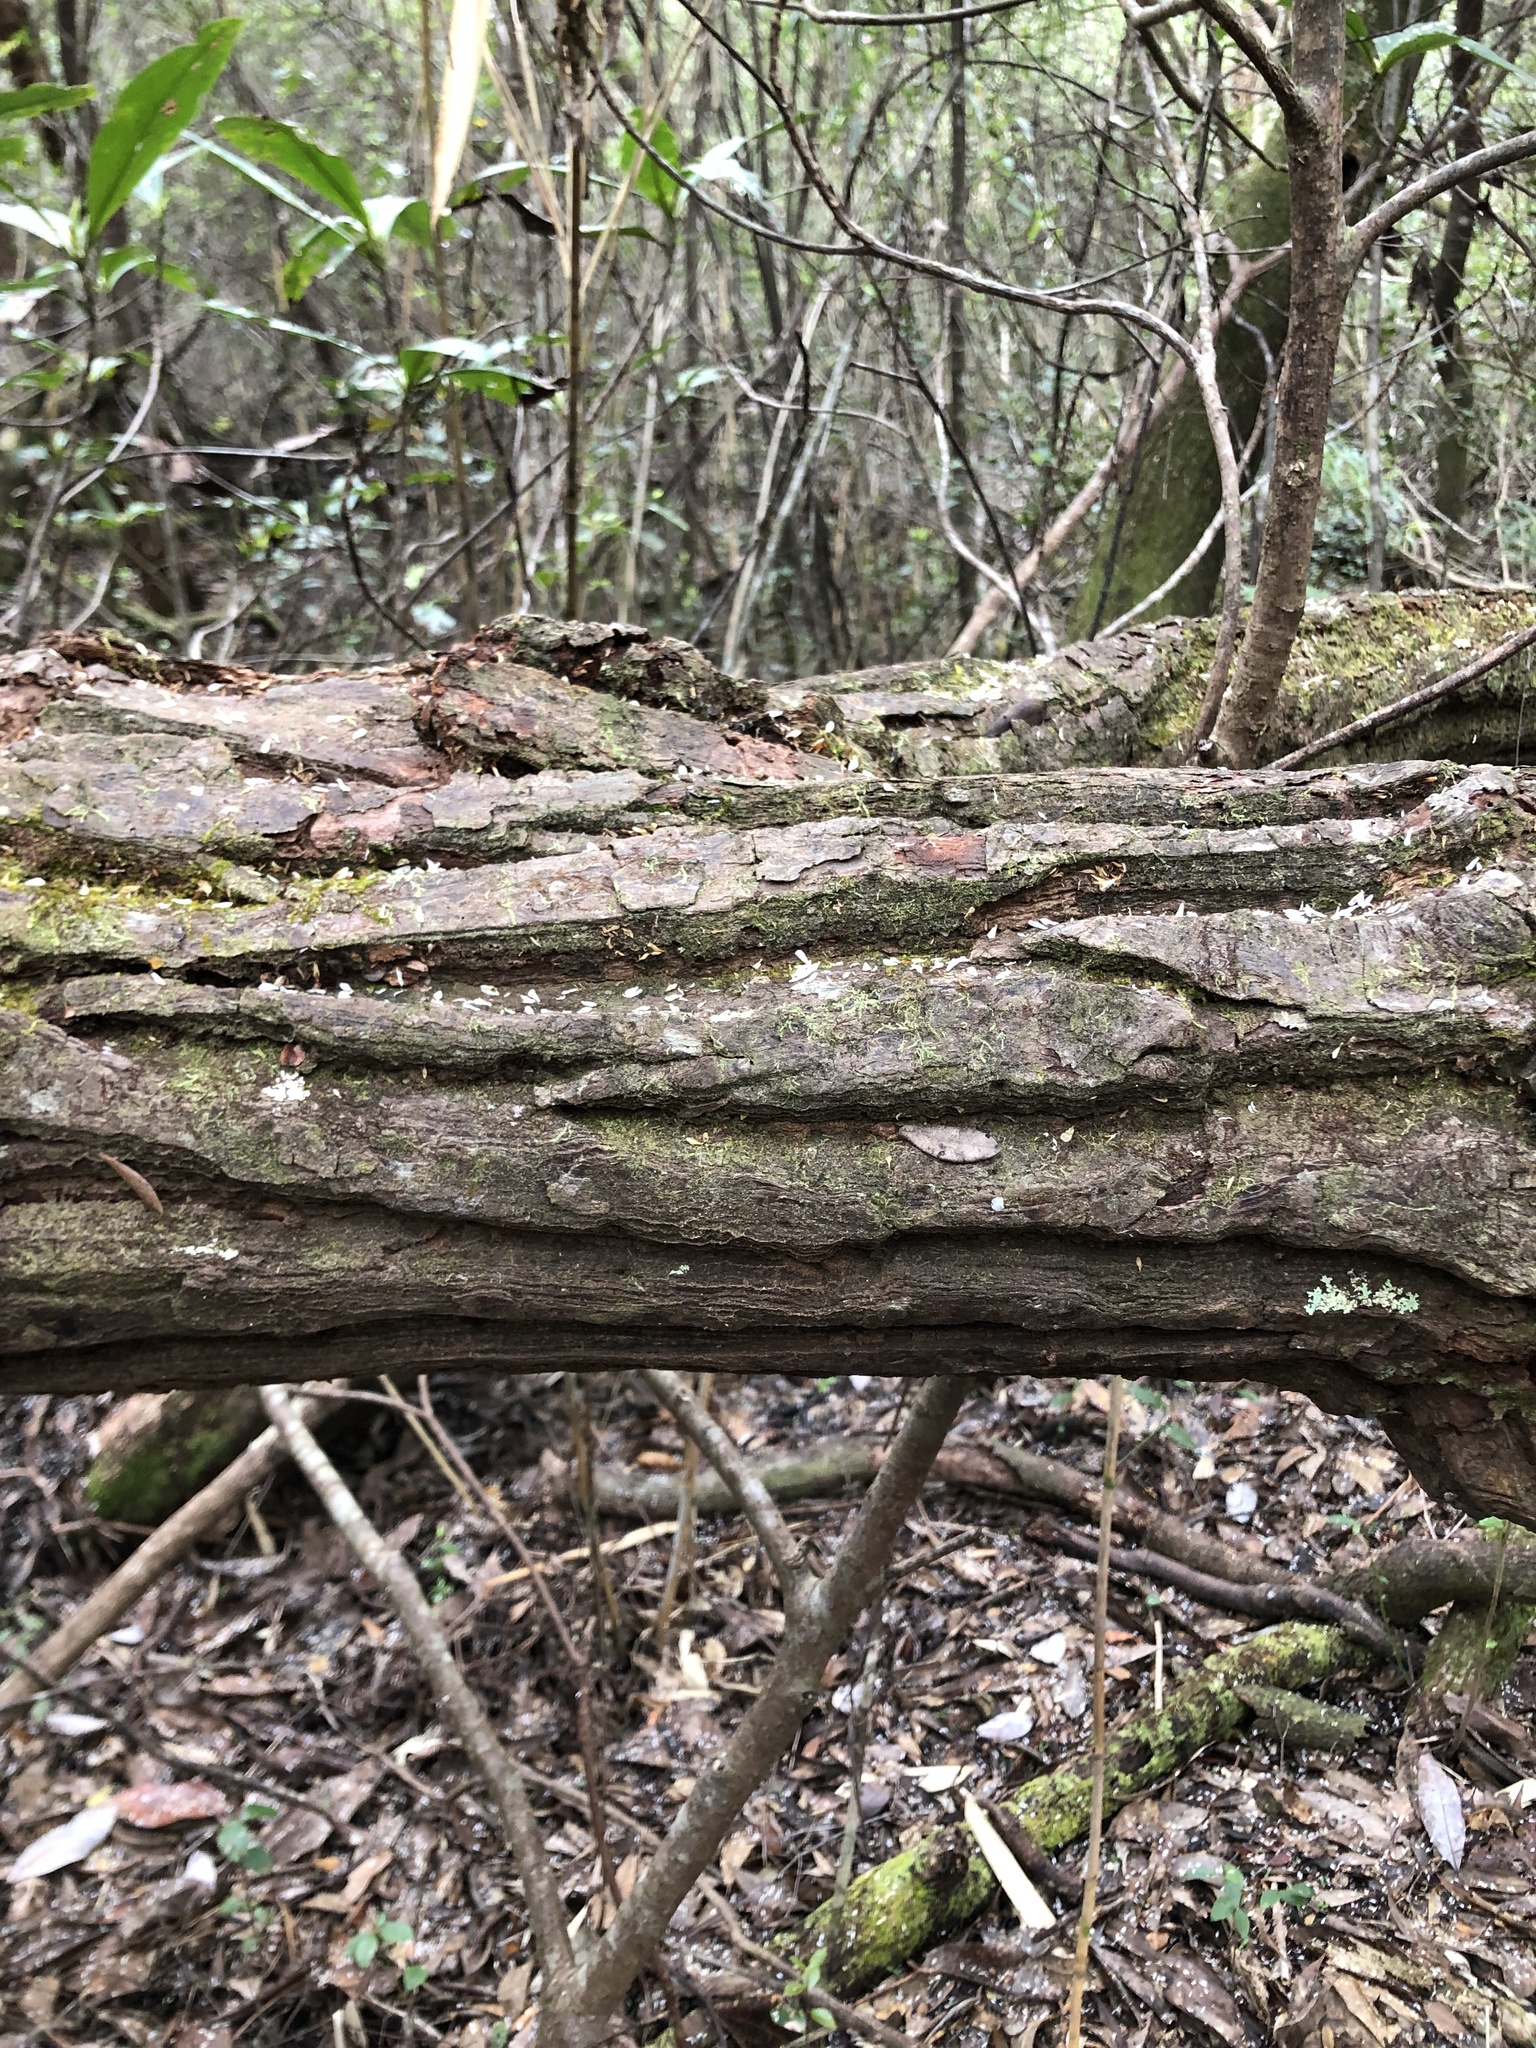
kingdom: Plantae
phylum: Tracheophyta
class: Magnoliopsida
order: Ericales
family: Theaceae
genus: Gordonia
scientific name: Gordonia lasianthus
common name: Loblolly bay
